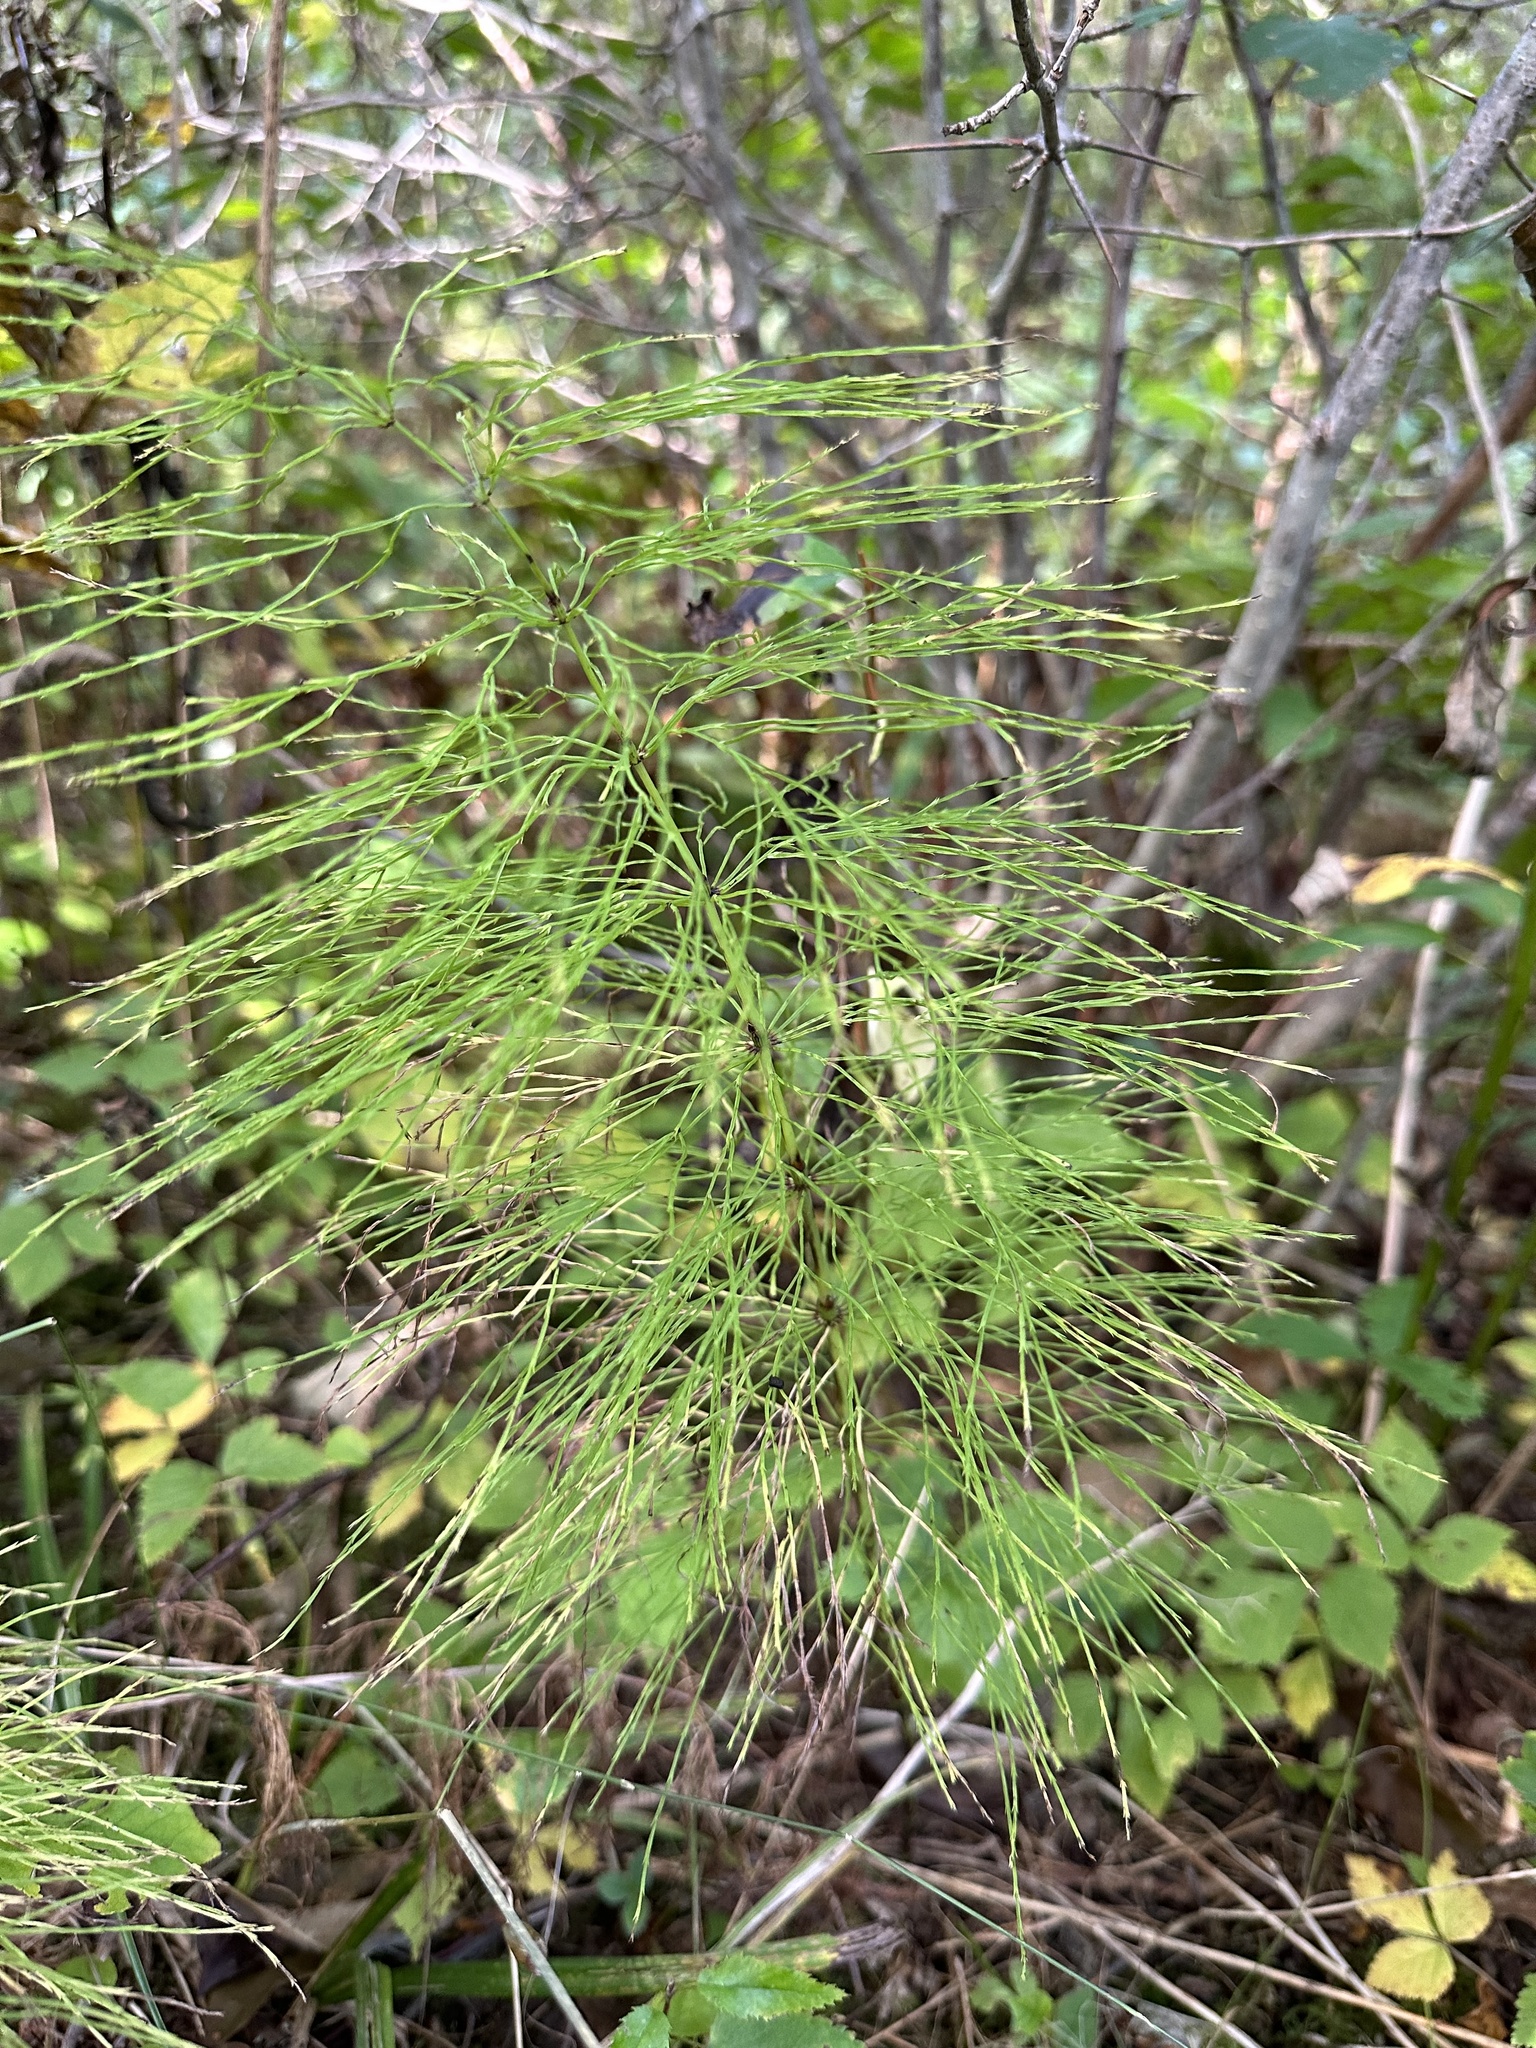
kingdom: Plantae
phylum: Tracheophyta
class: Polypodiopsida
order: Equisetales
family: Equisetaceae
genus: Equisetum
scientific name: Equisetum sylvaticum
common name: Wood horsetail
